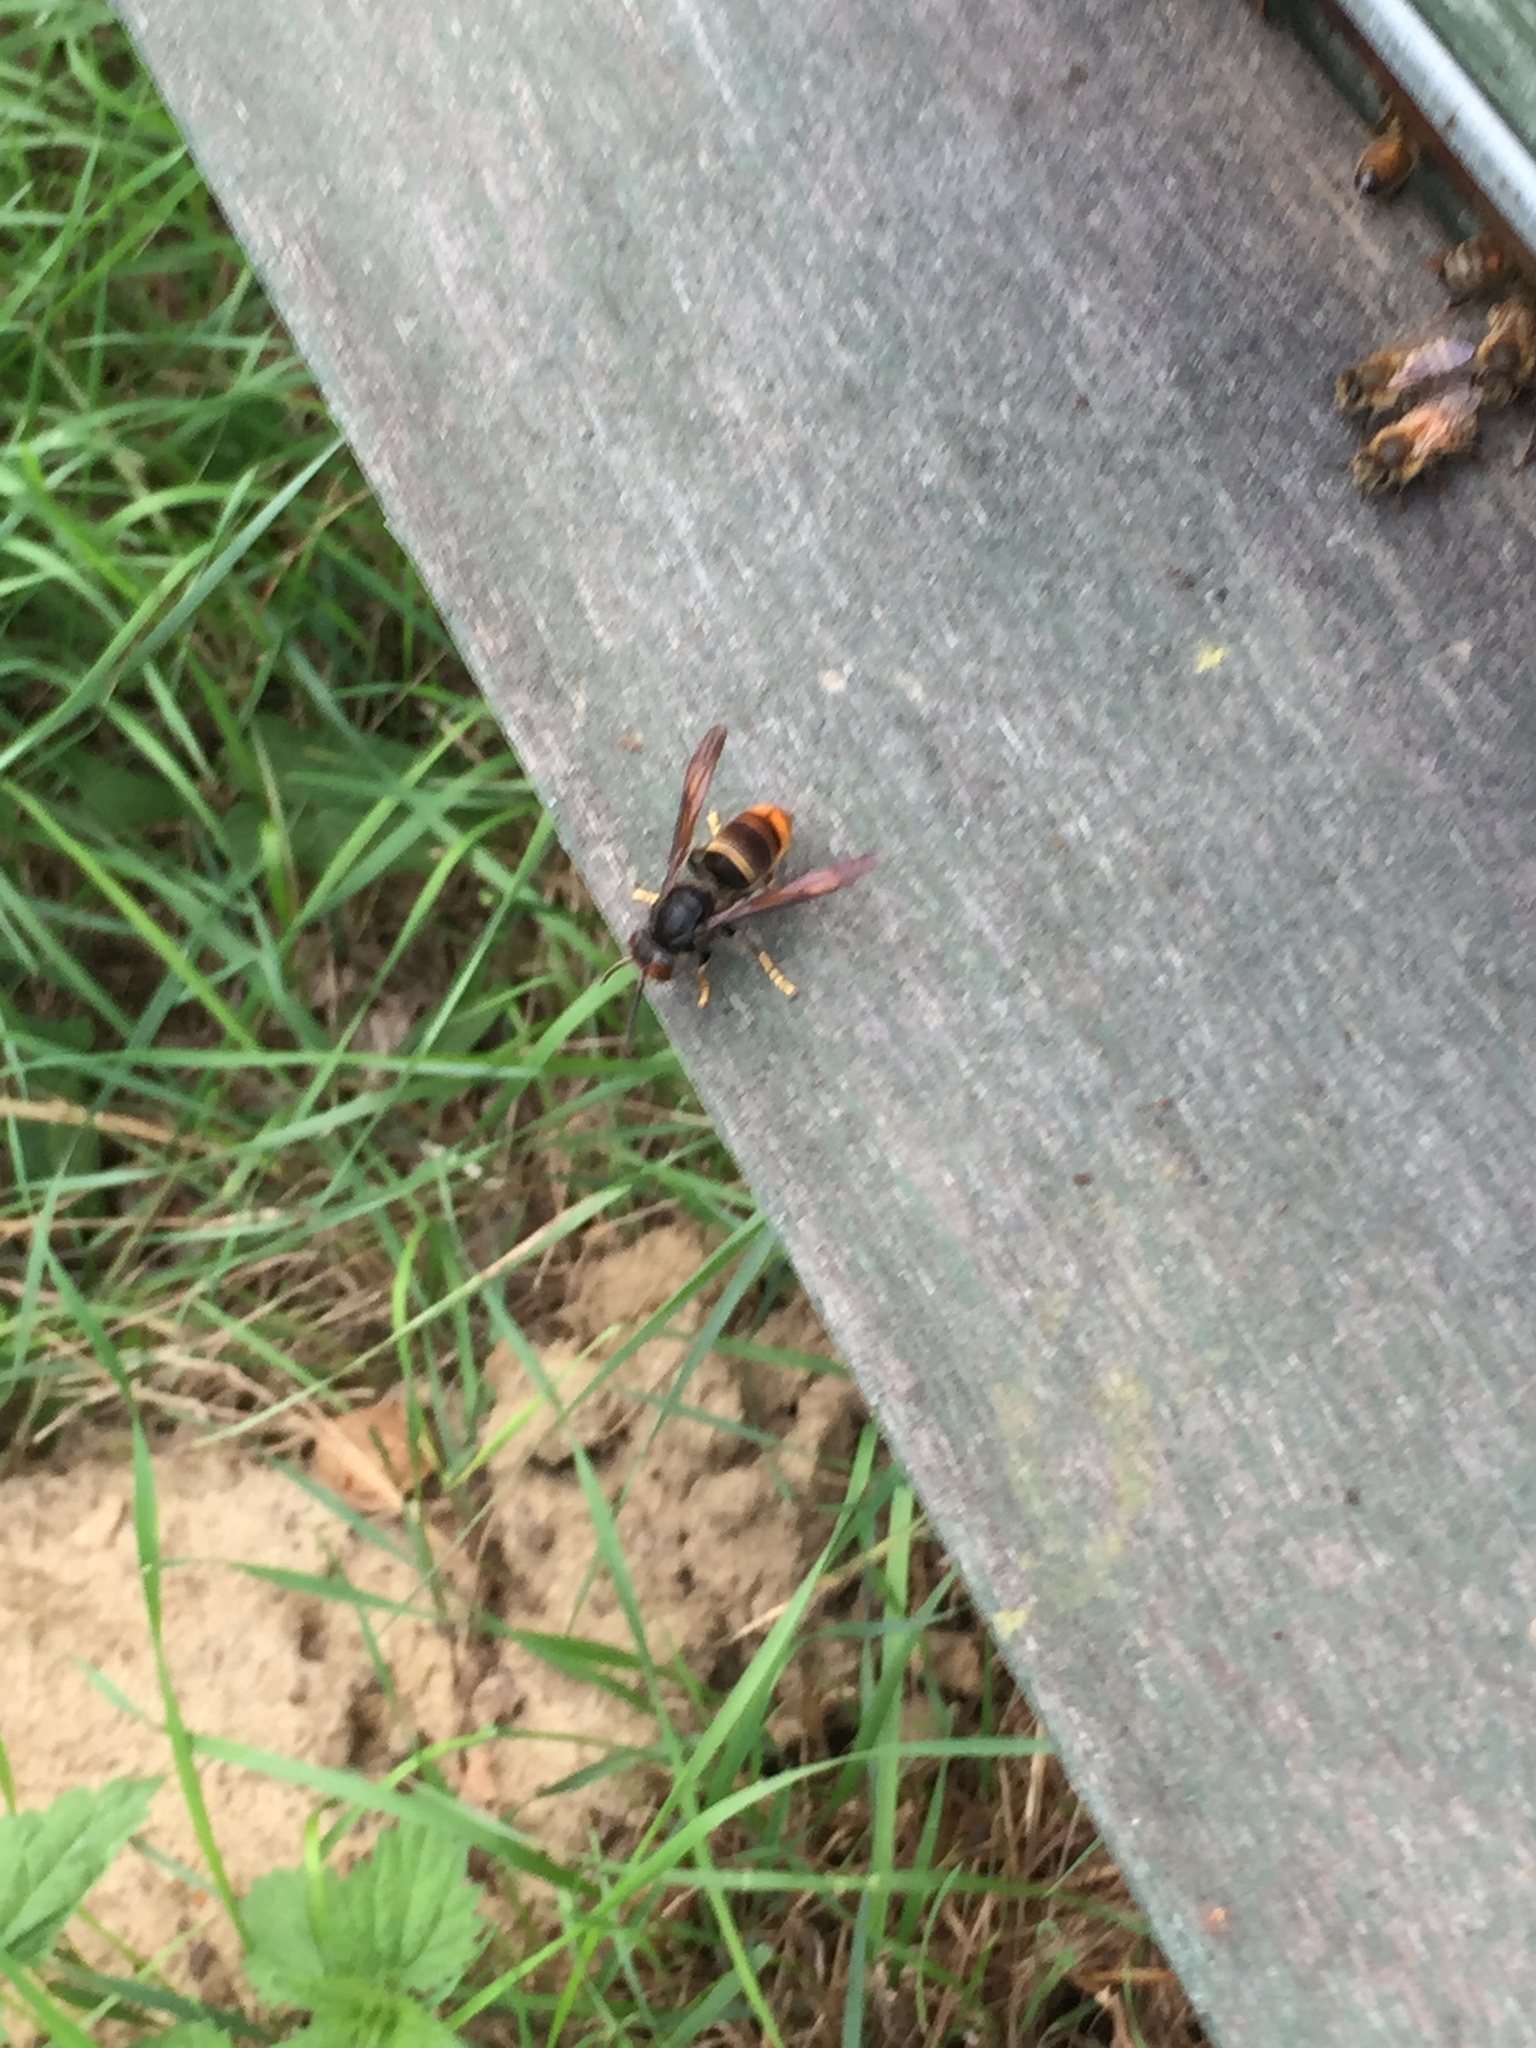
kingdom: Animalia
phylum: Arthropoda
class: Insecta
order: Hymenoptera
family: Vespidae
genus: Vespa
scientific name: Vespa velutina
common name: Asian hornet
